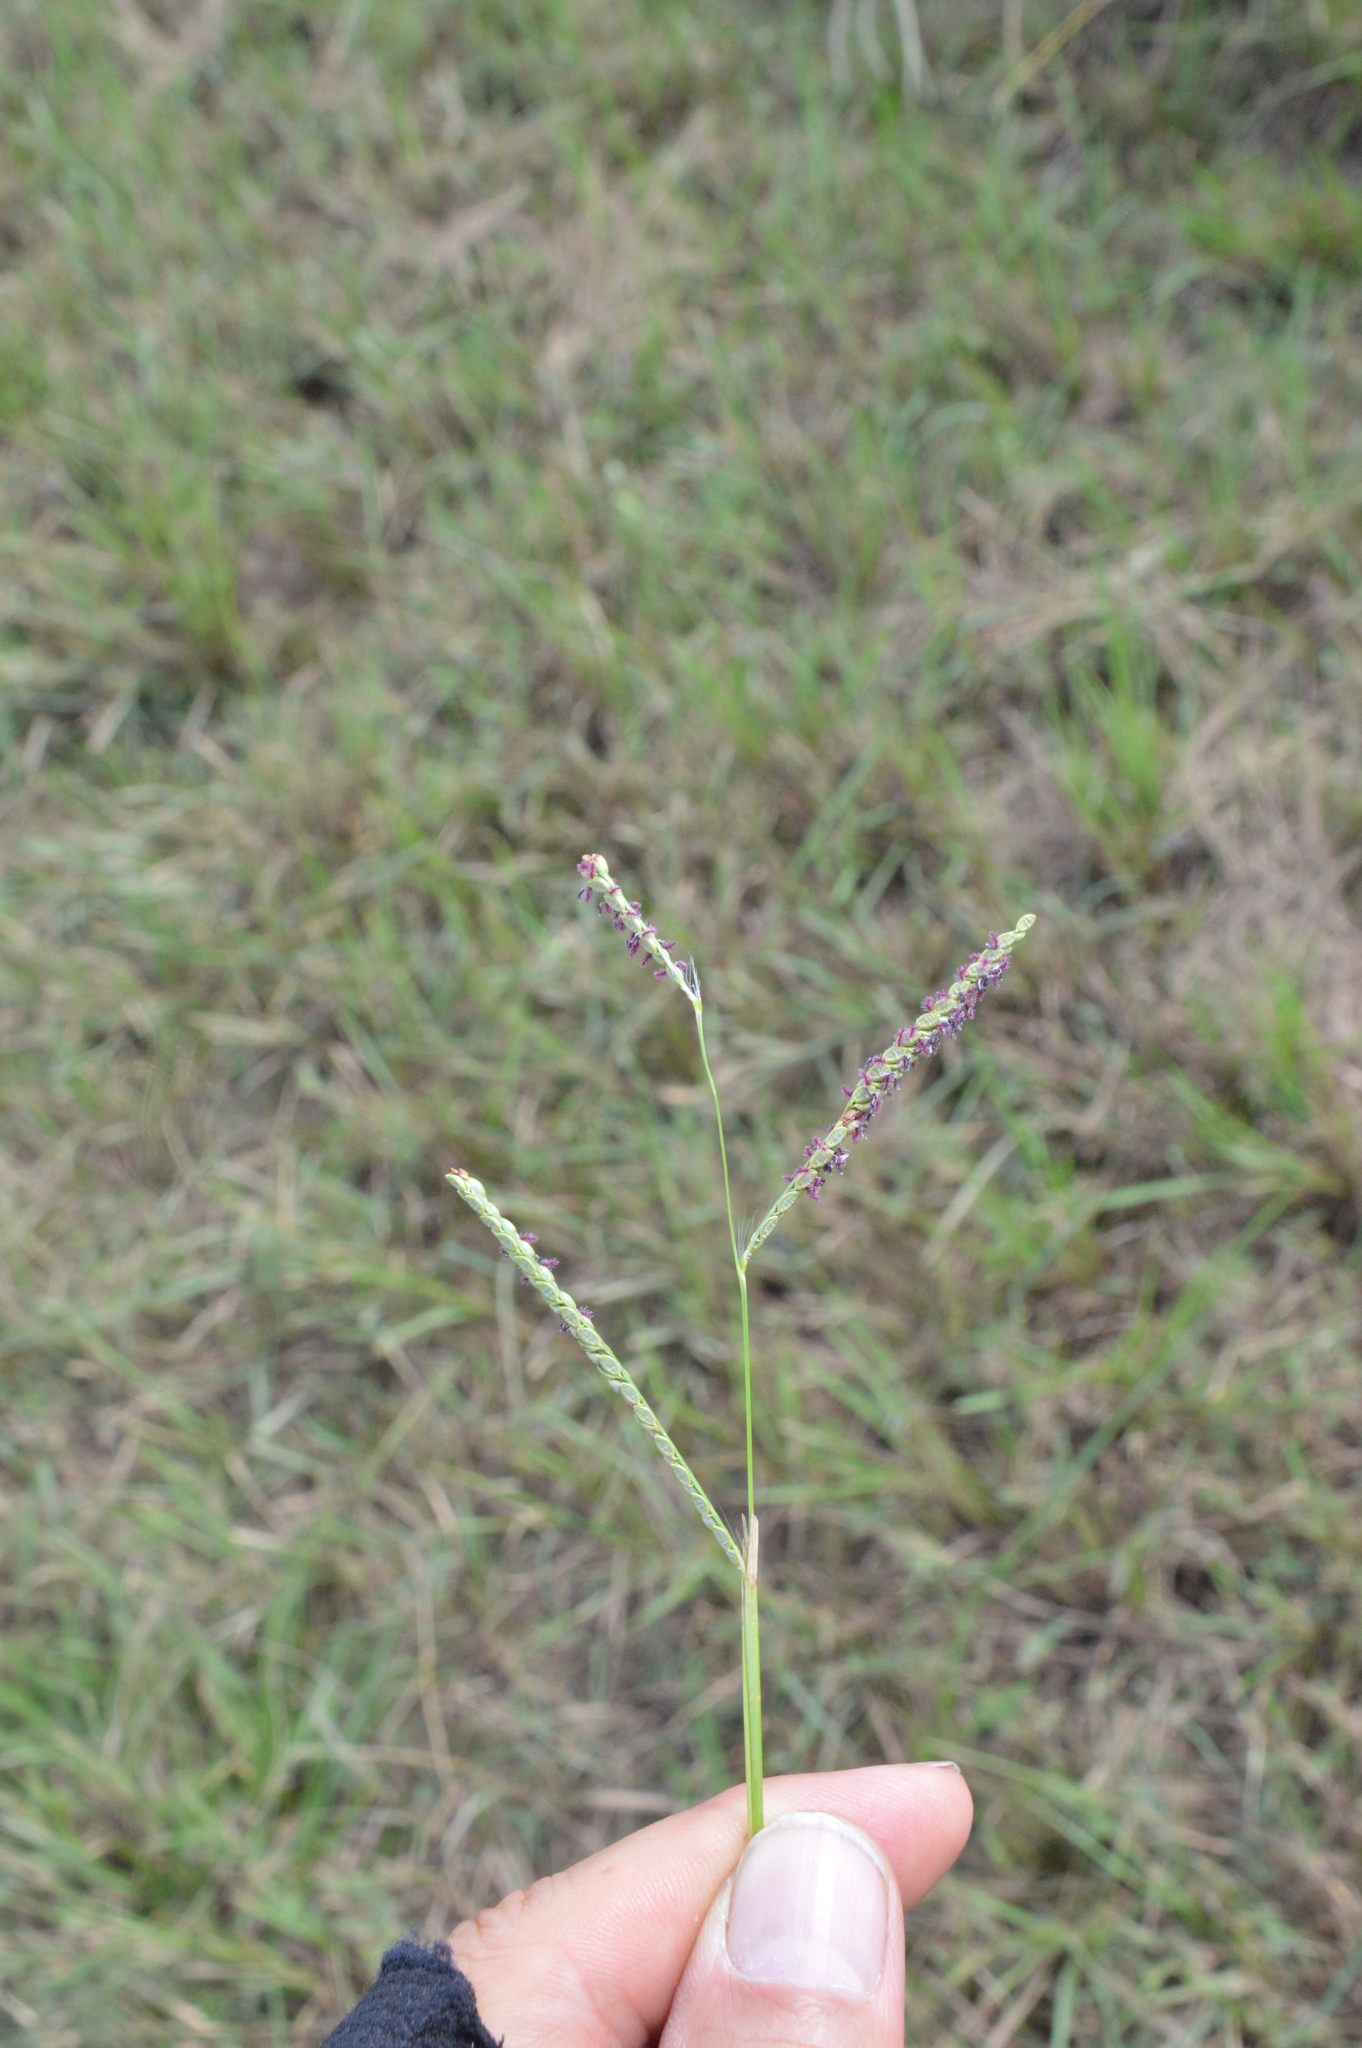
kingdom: Plantae
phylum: Tracheophyta
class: Liliopsida
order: Poales
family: Poaceae
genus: Paspalum
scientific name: Paspalum plicatulum
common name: Top paspalum
